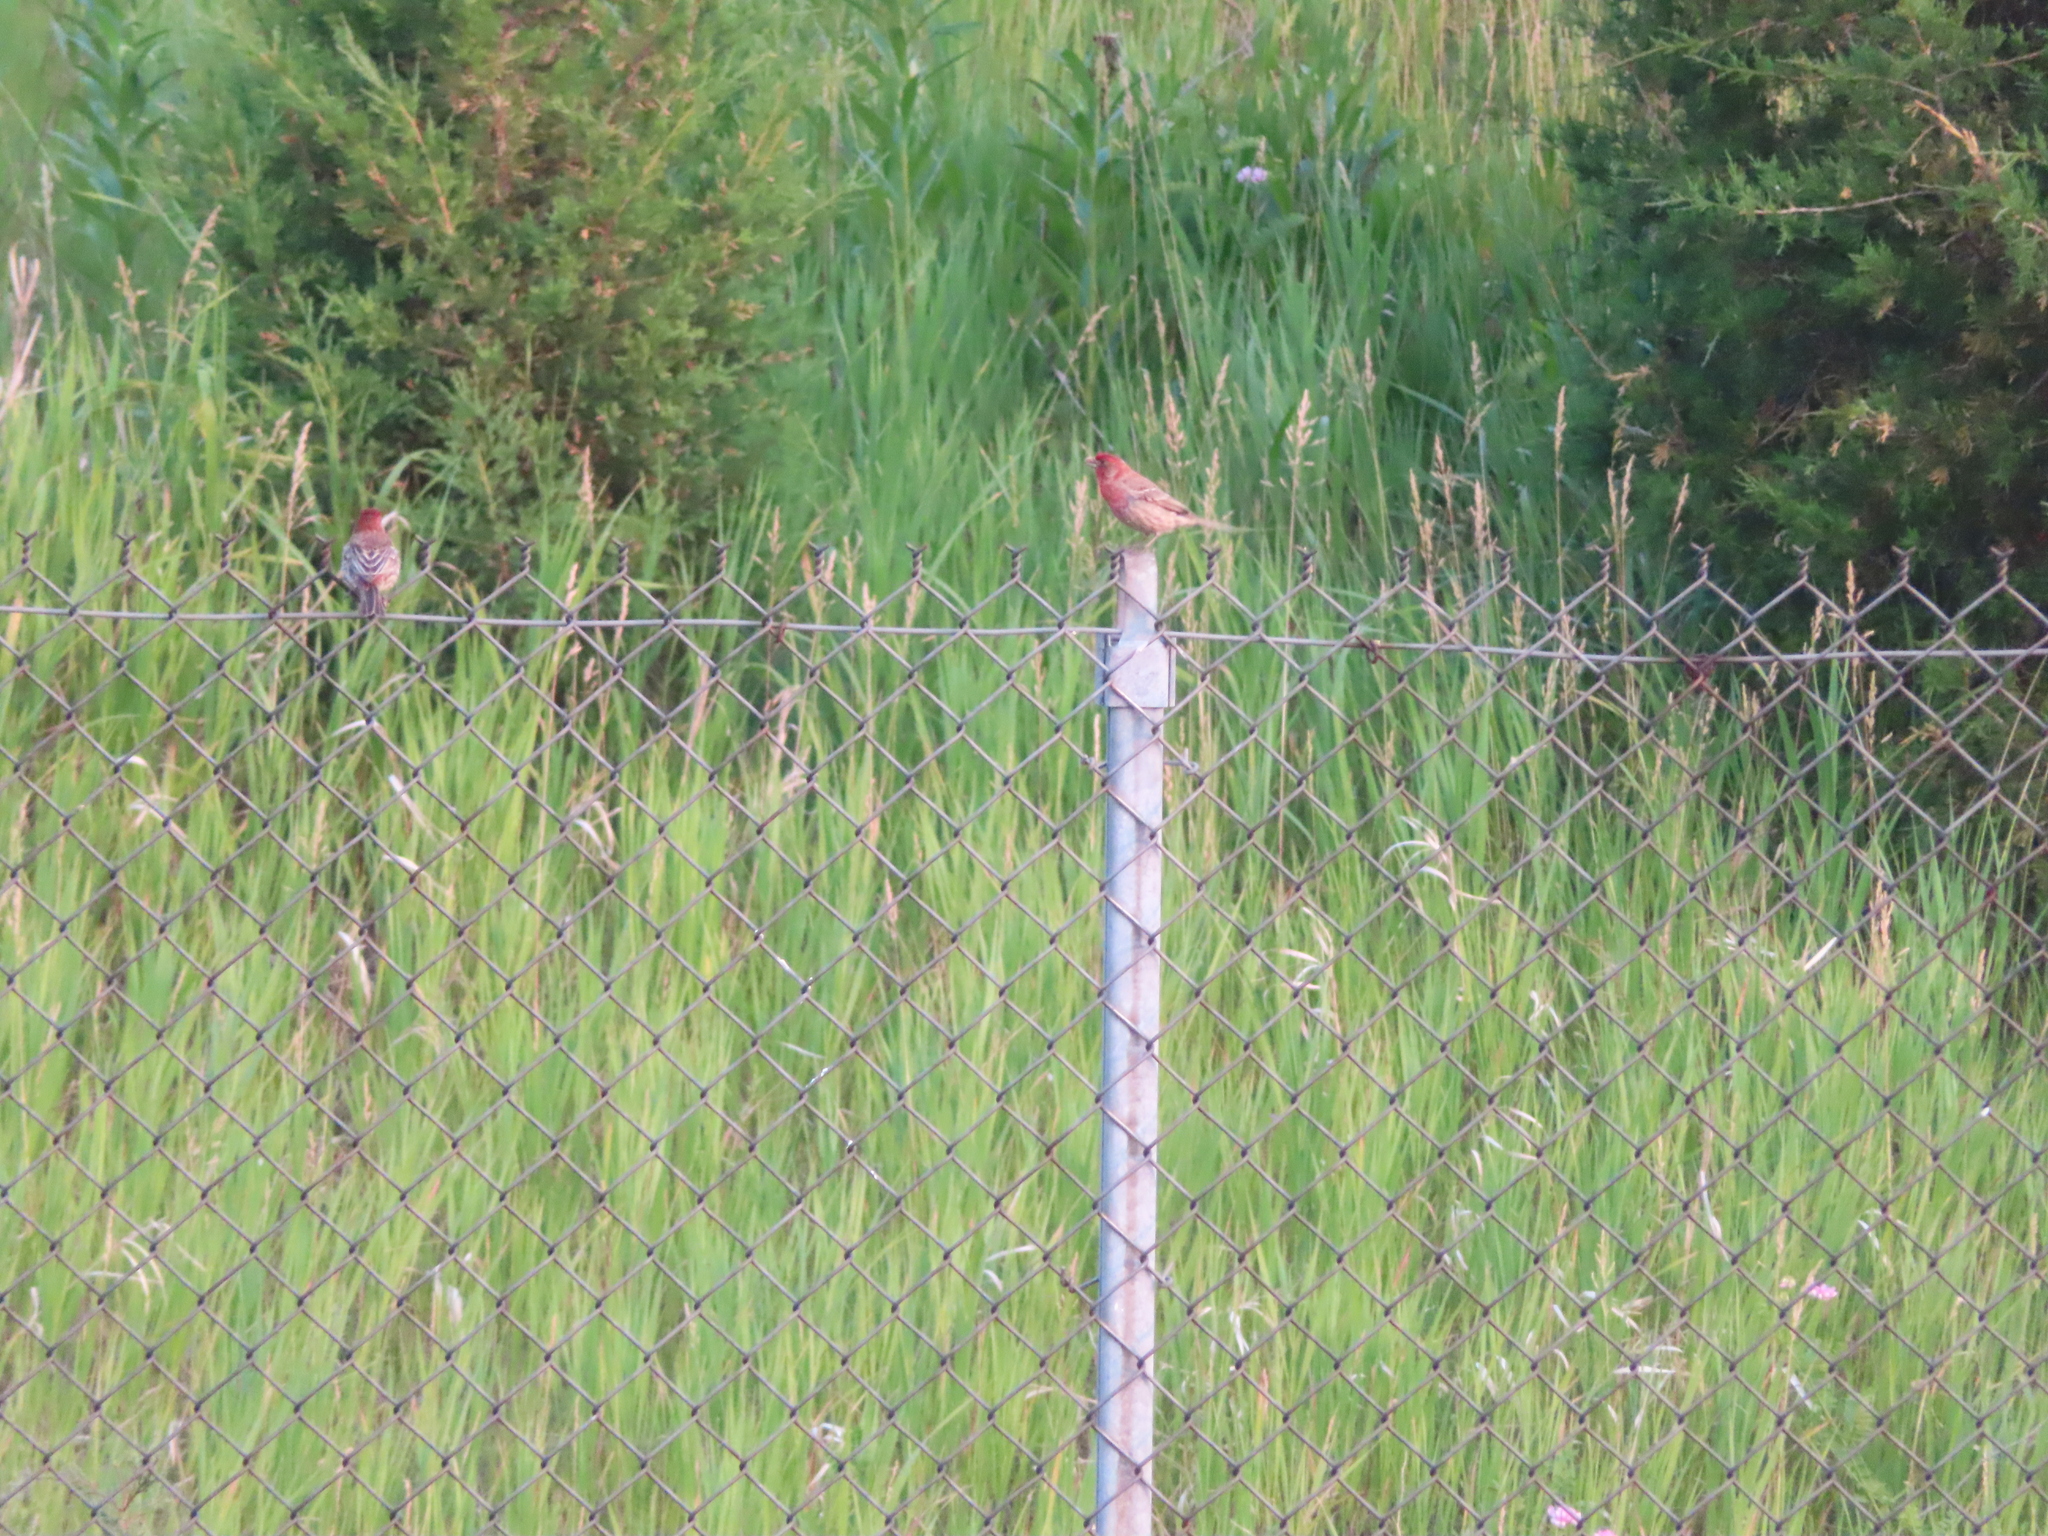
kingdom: Animalia
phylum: Chordata
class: Aves
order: Passeriformes
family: Fringillidae
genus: Haemorhous
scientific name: Haemorhous mexicanus
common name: House finch
